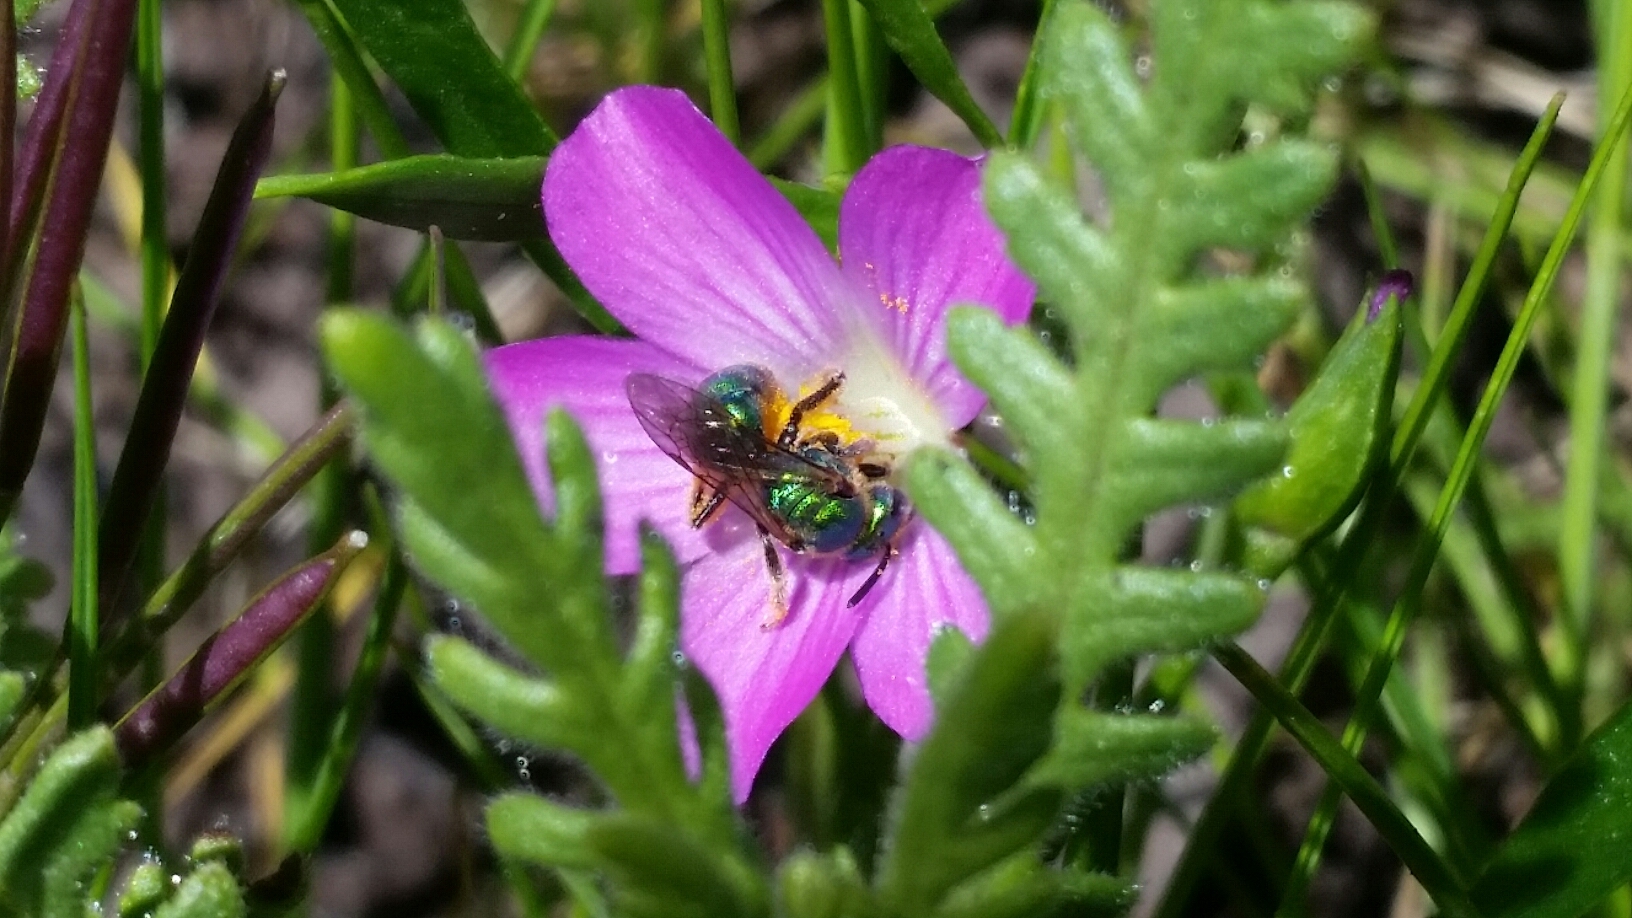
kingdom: Animalia
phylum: Arthropoda
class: Insecta
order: Hymenoptera
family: Halictidae
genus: Augochlorella
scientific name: Augochlorella pomoniella
